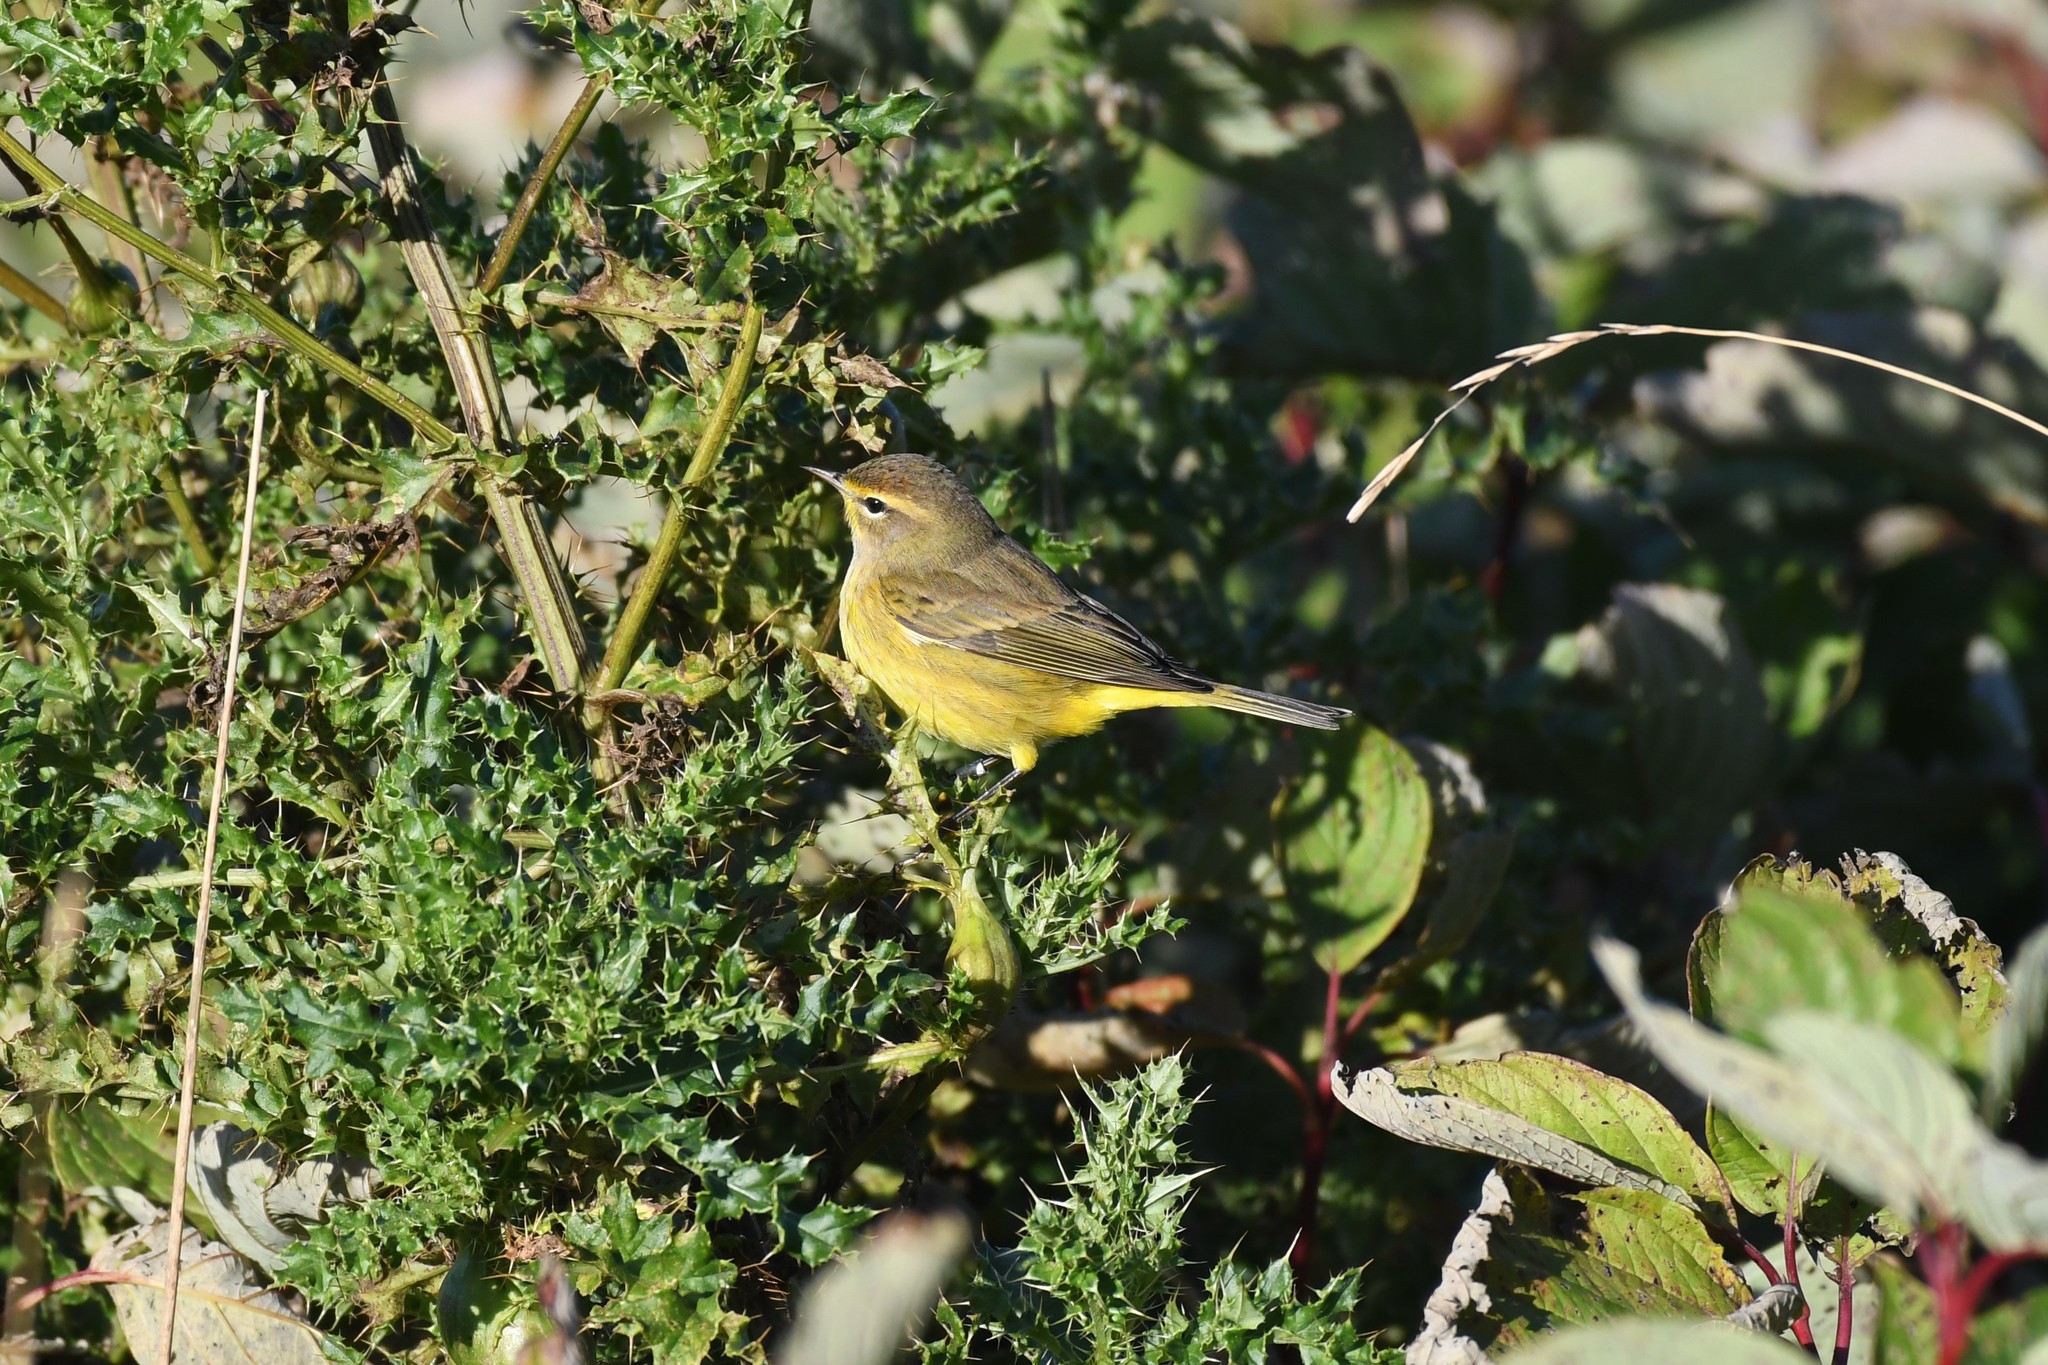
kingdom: Animalia
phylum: Chordata
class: Aves
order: Passeriformes
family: Parulidae
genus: Setophaga
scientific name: Setophaga palmarum
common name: Palm warbler
